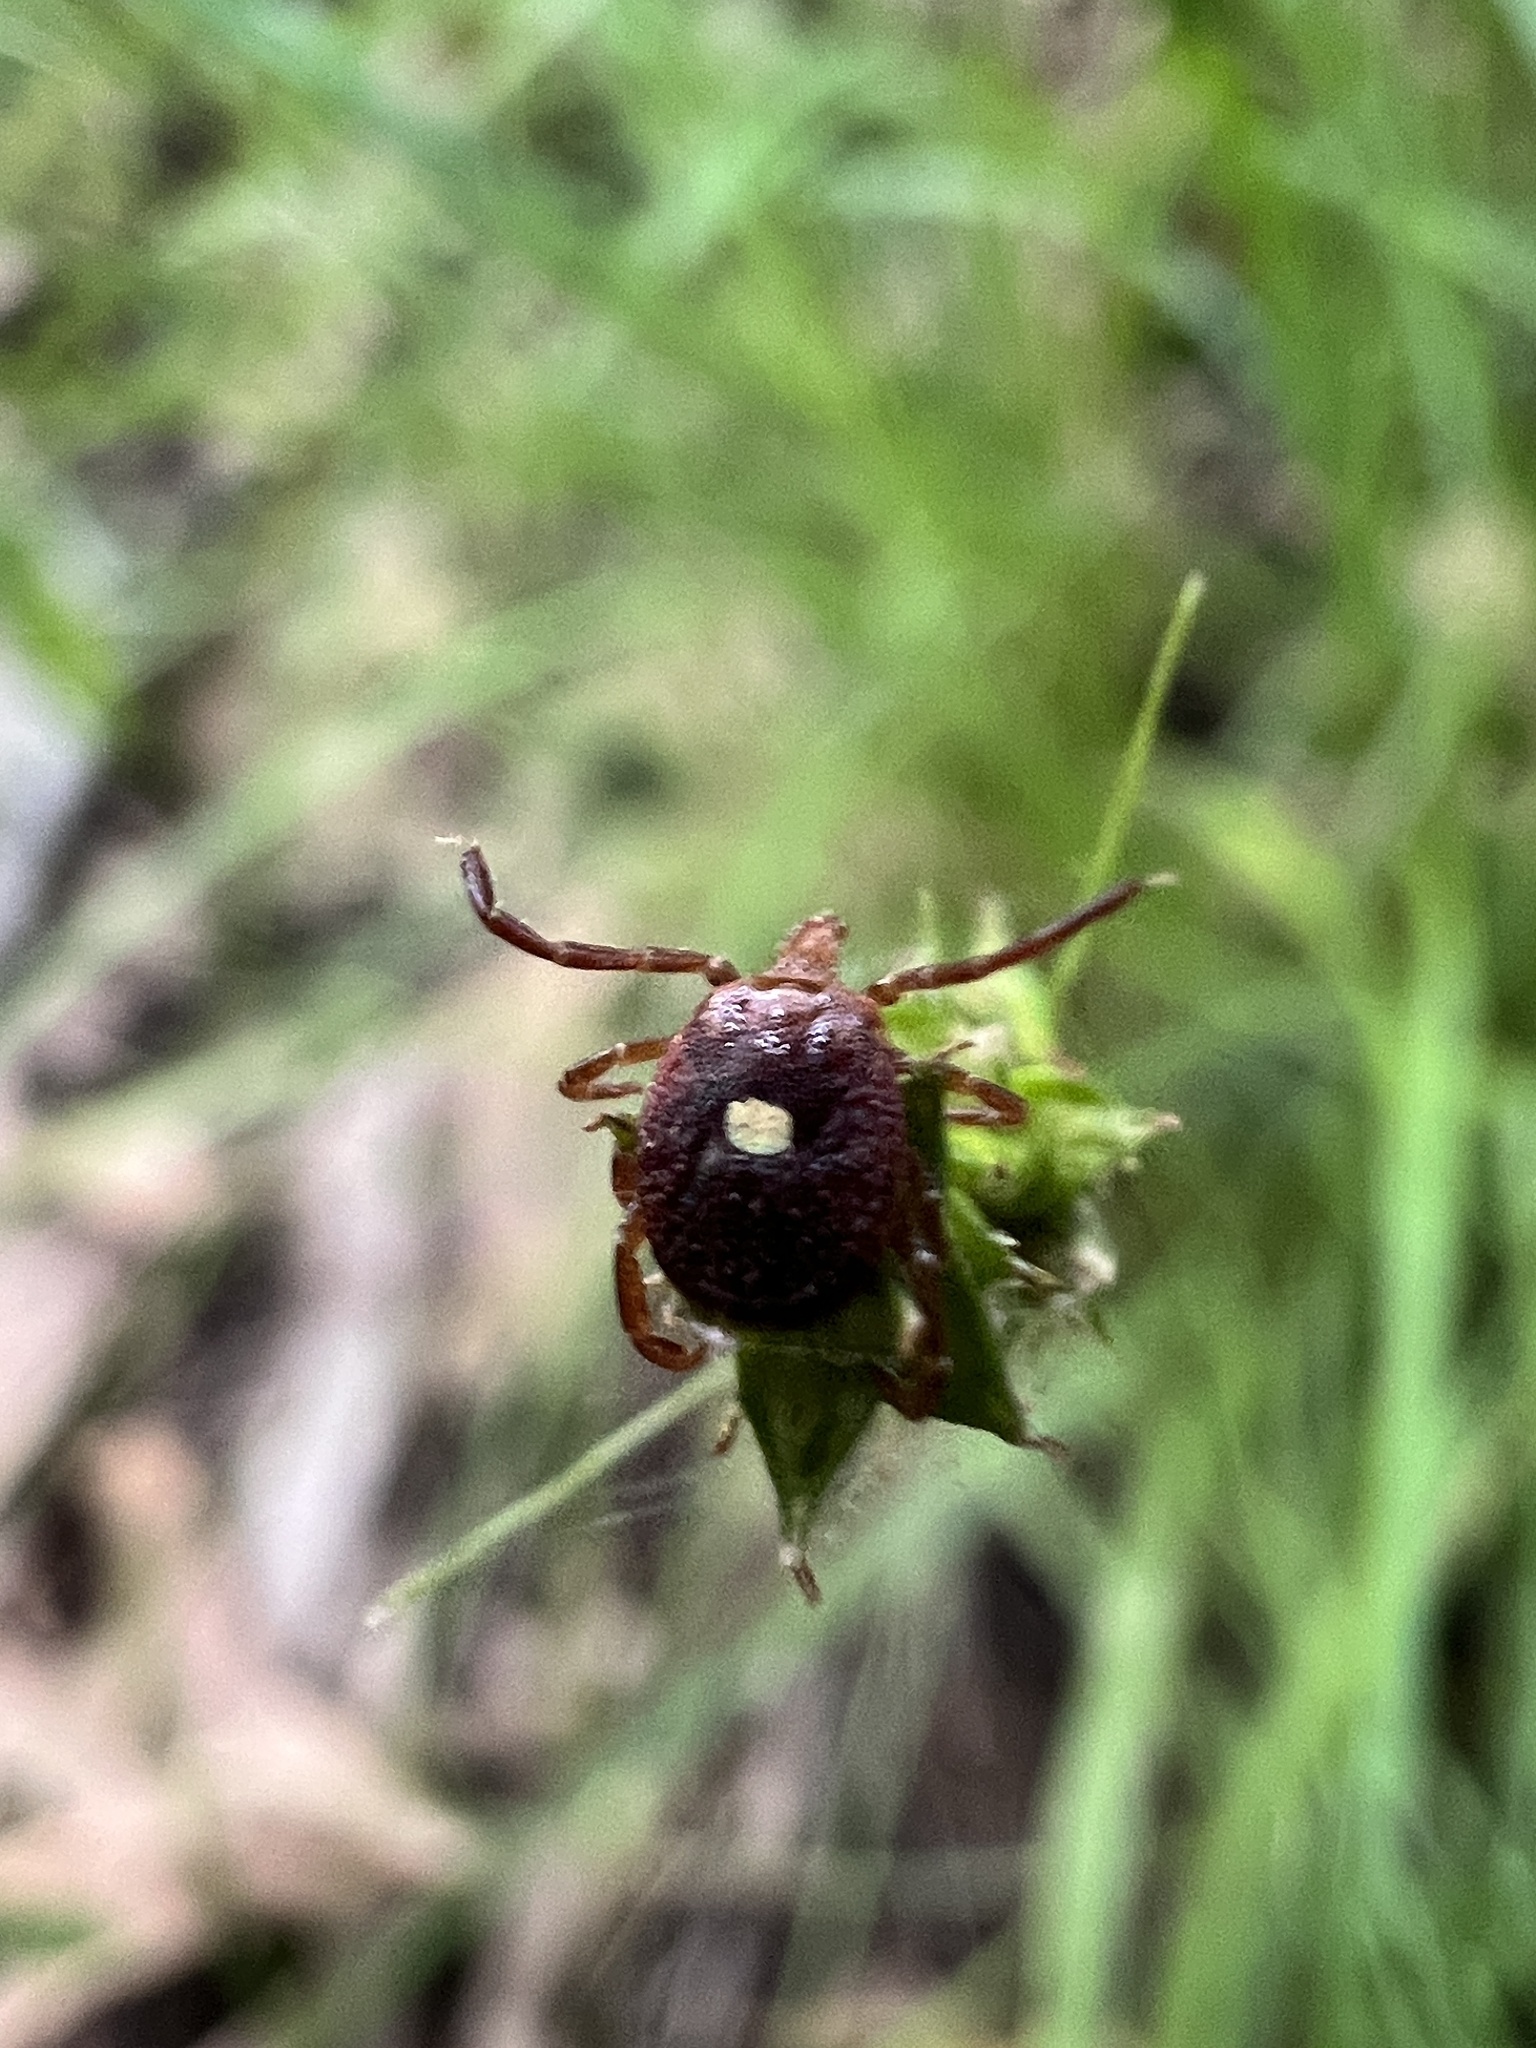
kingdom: Animalia
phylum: Arthropoda
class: Arachnida
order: Ixodida
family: Ixodidae
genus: Amblyomma
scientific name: Amblyomma americanum
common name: Lone star tick
